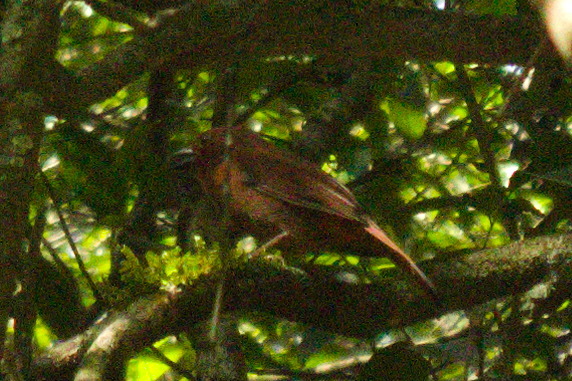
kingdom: Animalia
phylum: Chordata
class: Aves
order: Passeriformes
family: Cardinalidae
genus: Habia
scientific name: Habia rubica
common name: Red-crowned ant-tanager
